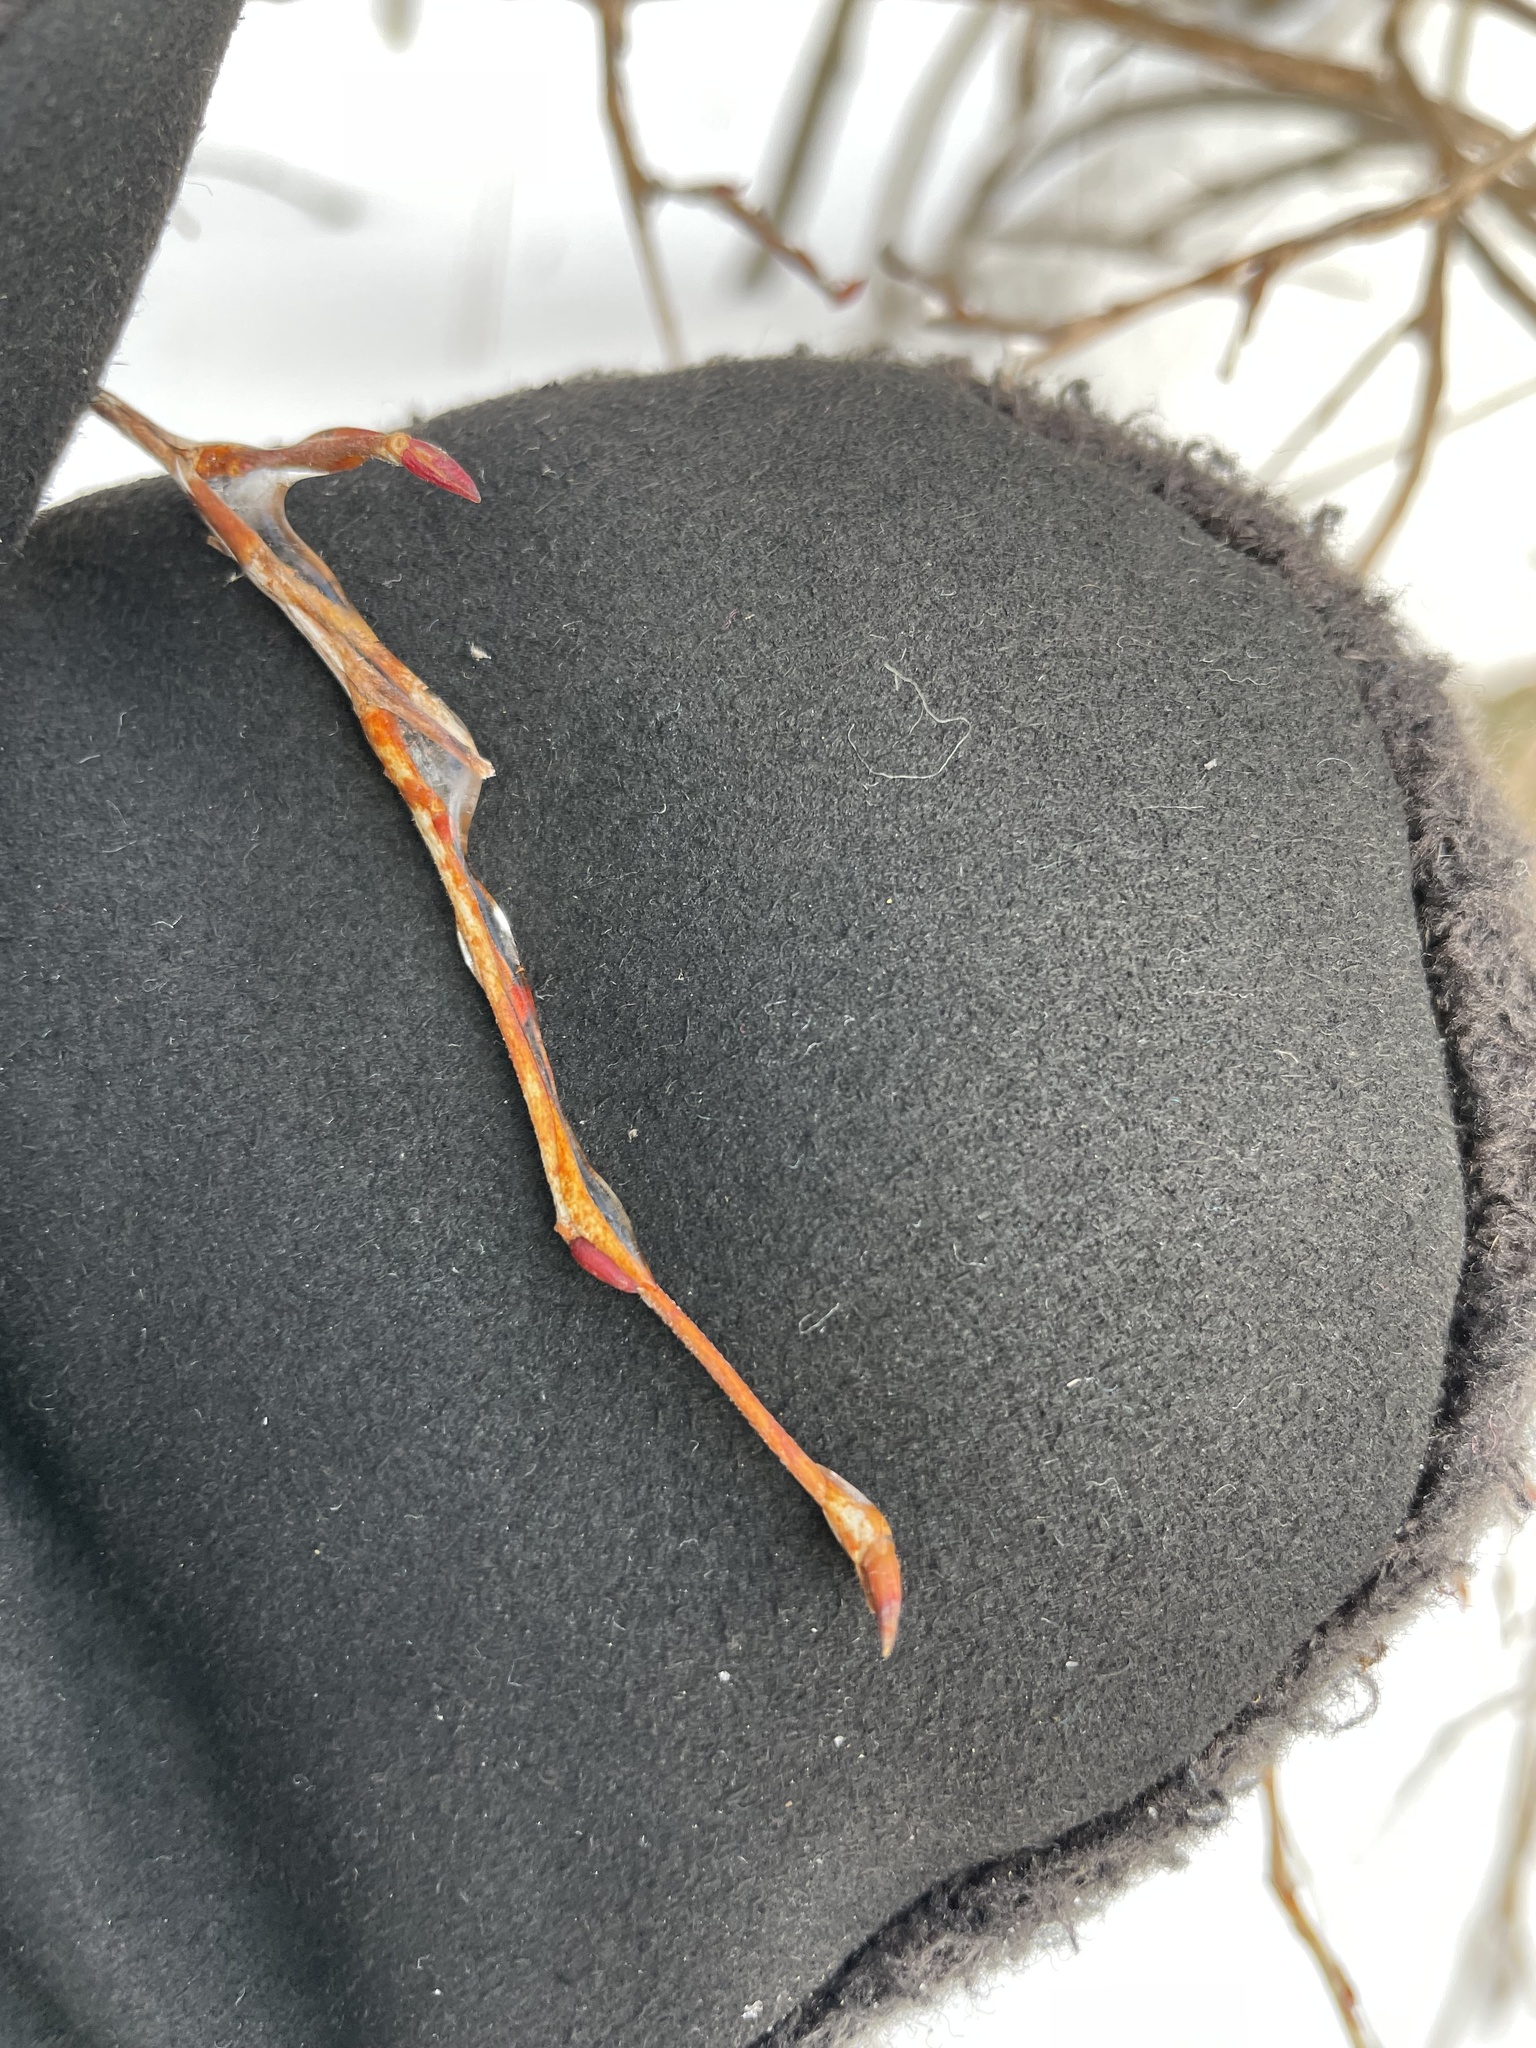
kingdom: Plantae
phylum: Tracheophyta
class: Magnoliopsida
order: Ericales
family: Ericaceae
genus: Lyonia
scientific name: Lyonia ligustrina
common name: Maleberry
